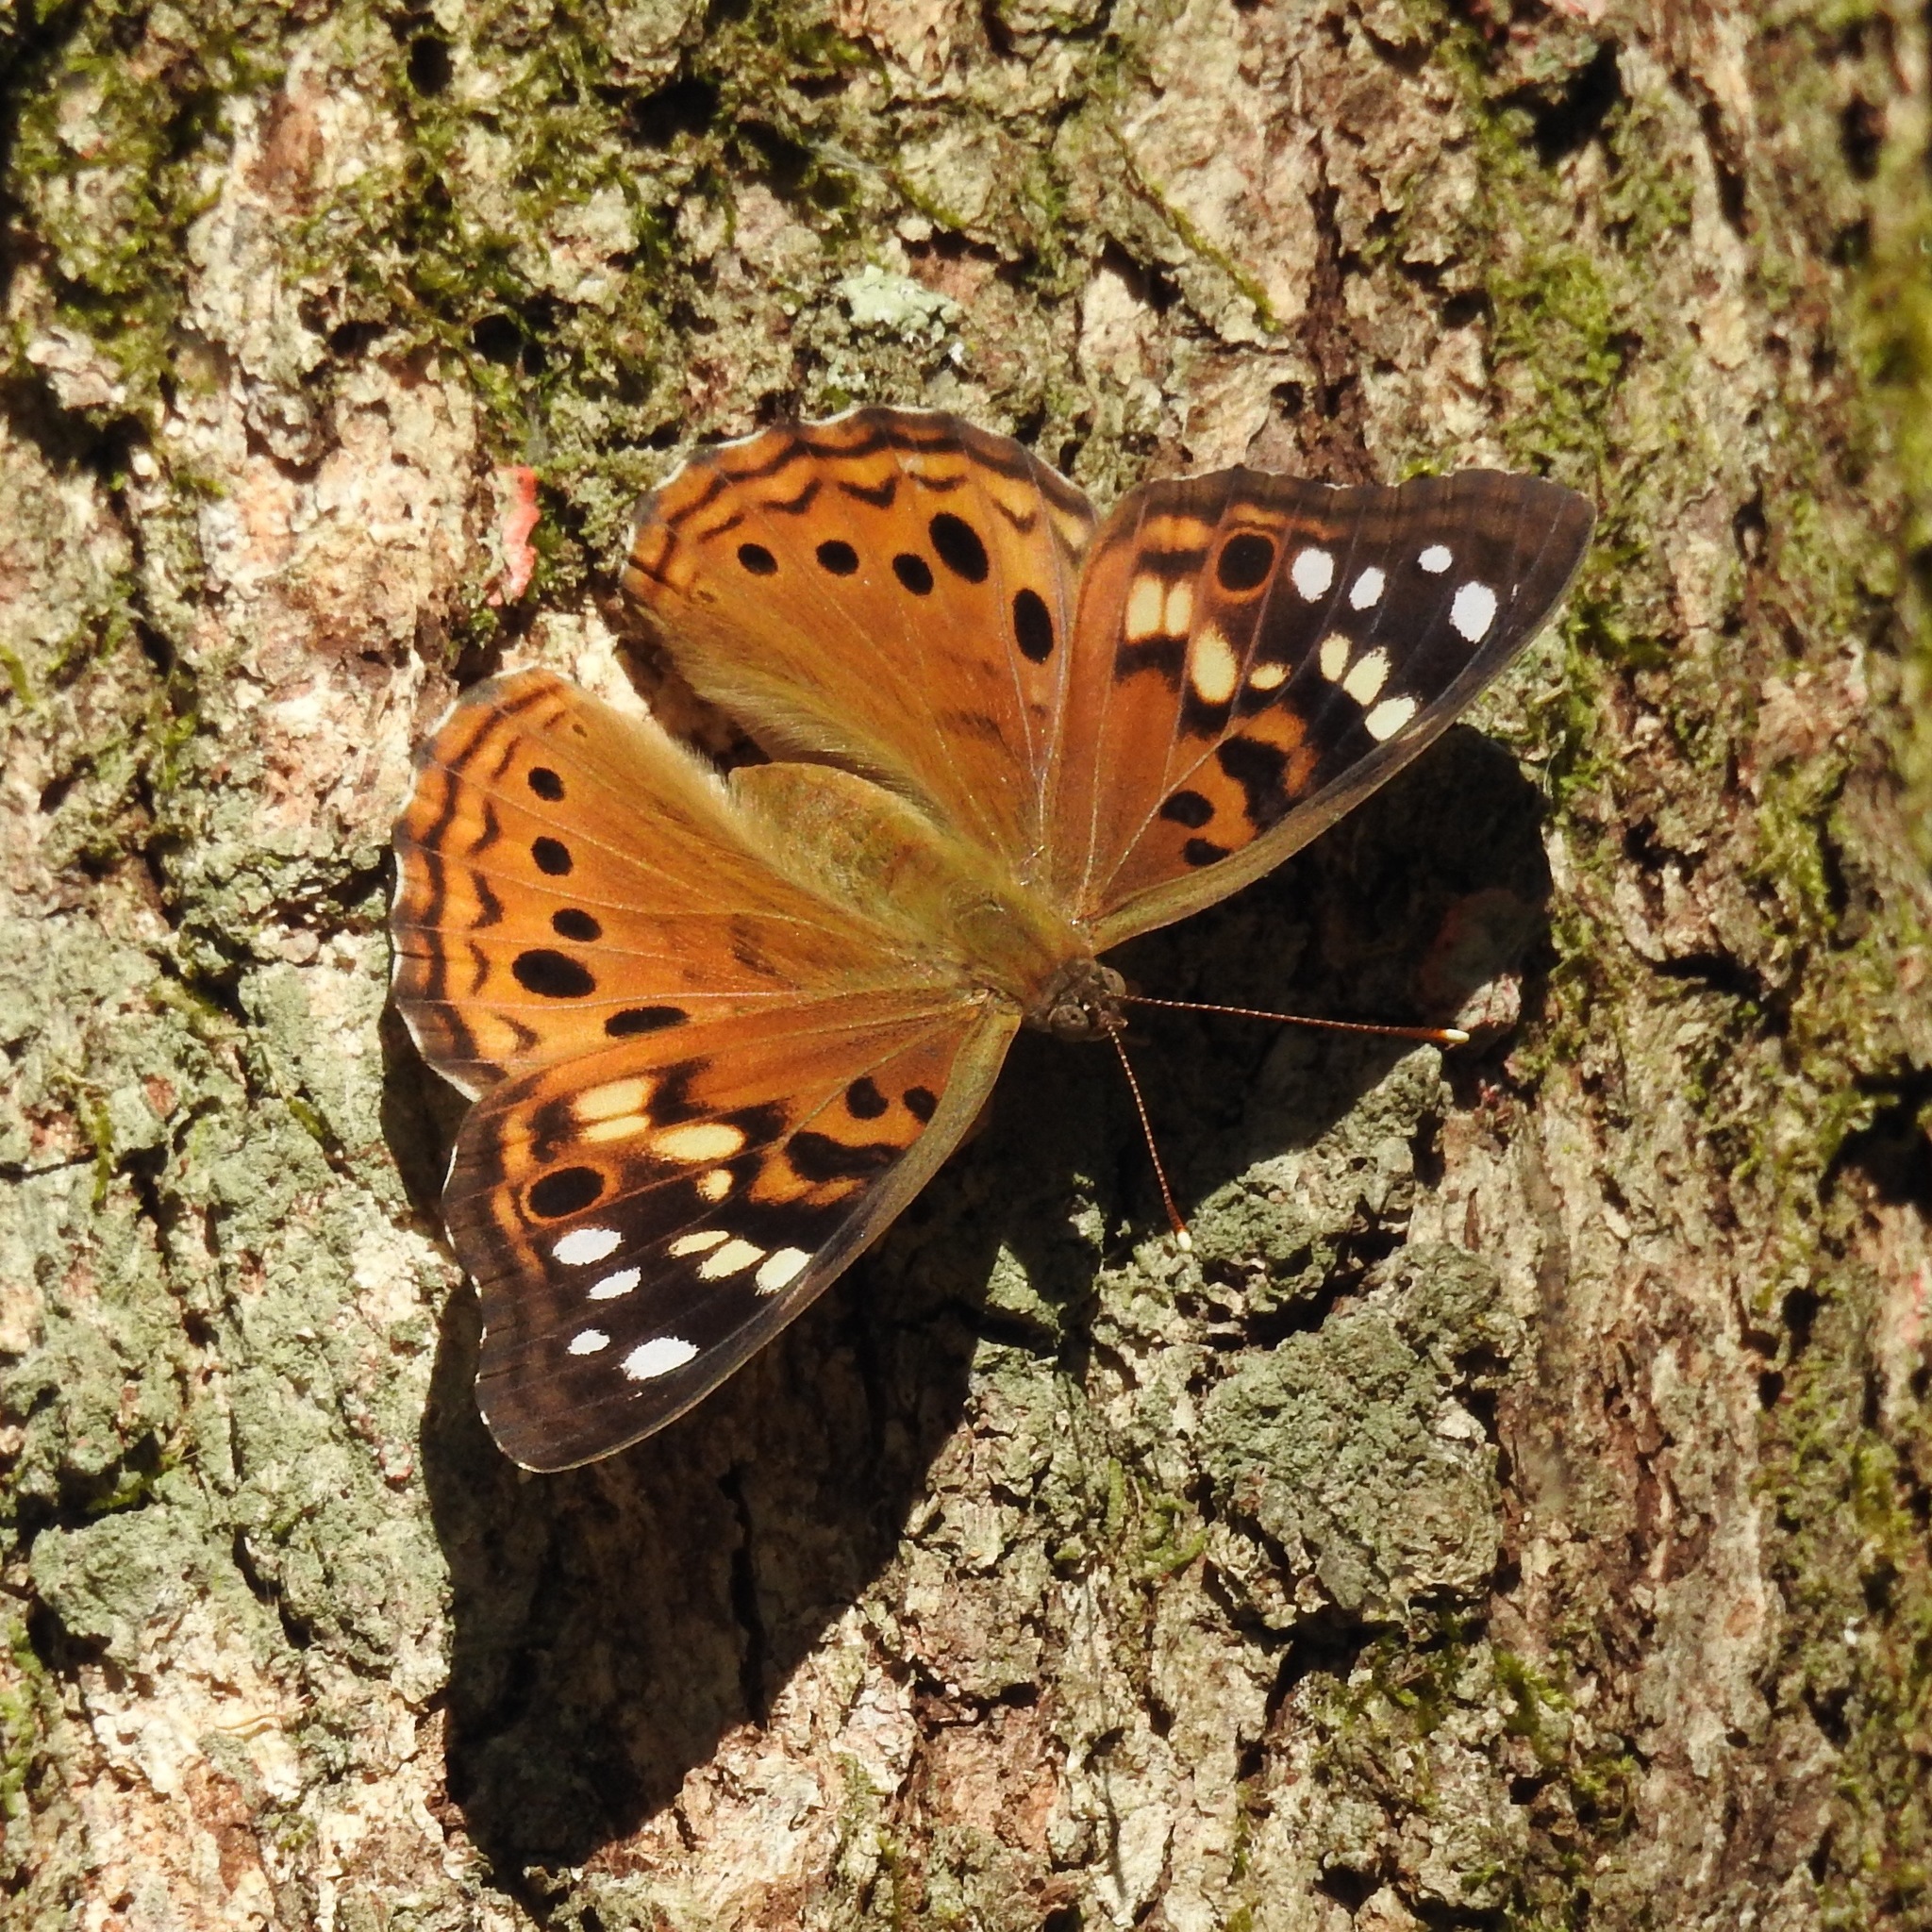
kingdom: Animalia
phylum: Arthropoda
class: Insecta
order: Lepidoptera
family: Nymphalidae
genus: Asterocampa
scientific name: Asterocampa celtis
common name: Hackberry emperor
